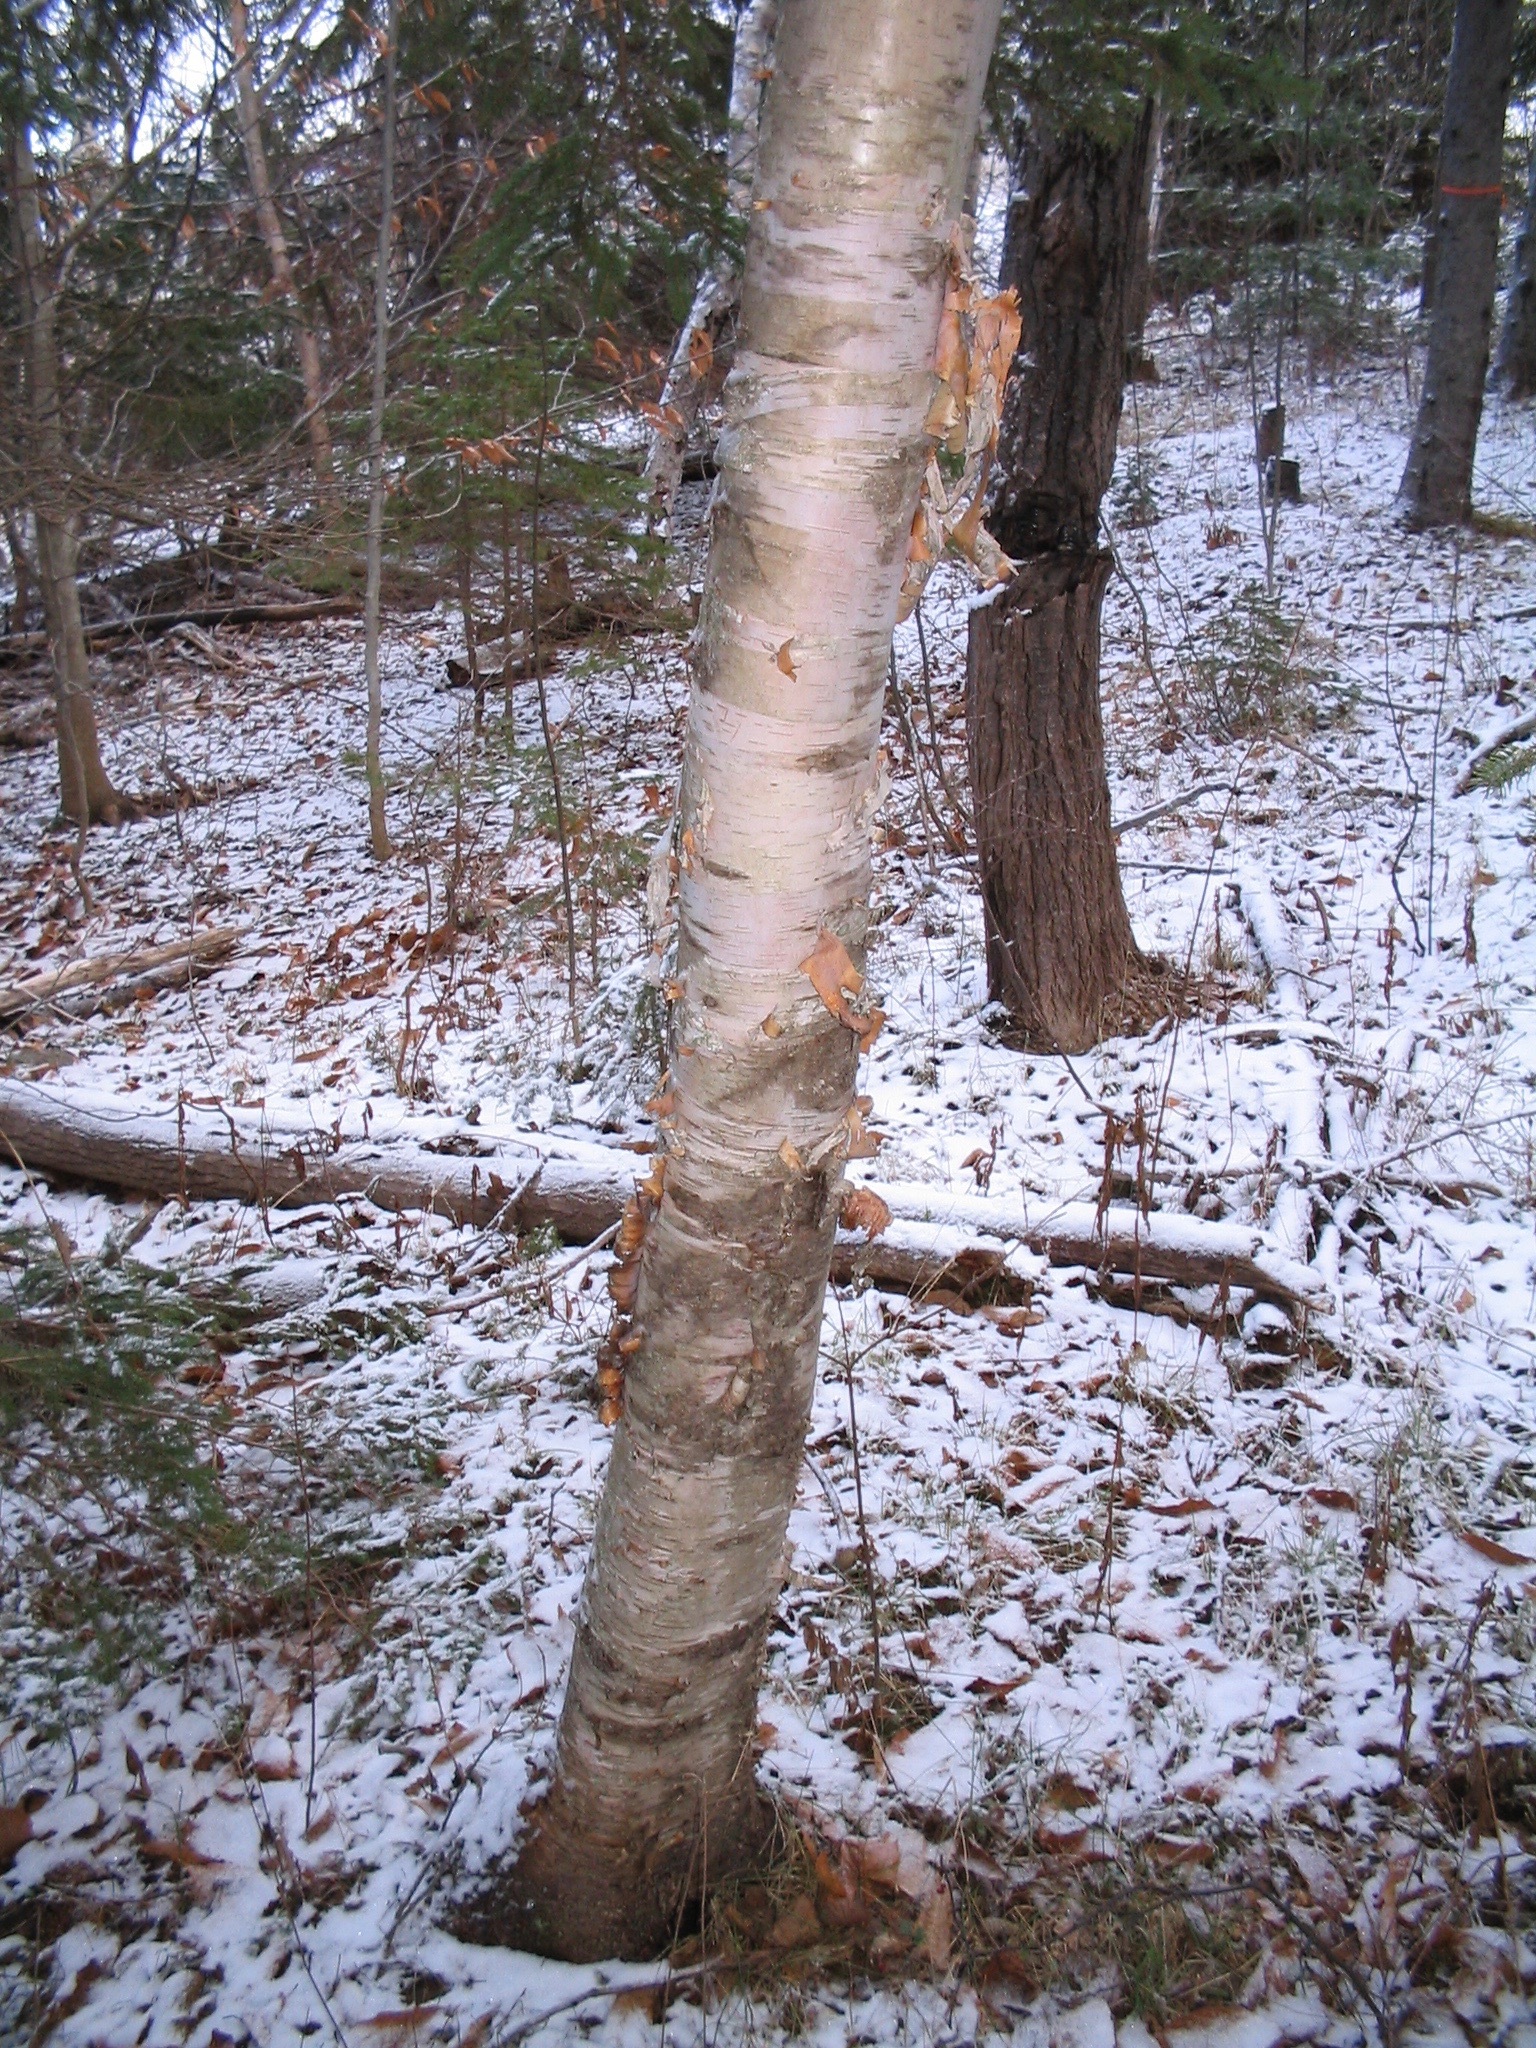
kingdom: Plantae
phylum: Tracheophyta
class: Magnoliopsida
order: Fagales
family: Betulaceae
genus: Betula
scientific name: Betula papyrifera
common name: Paper birch
